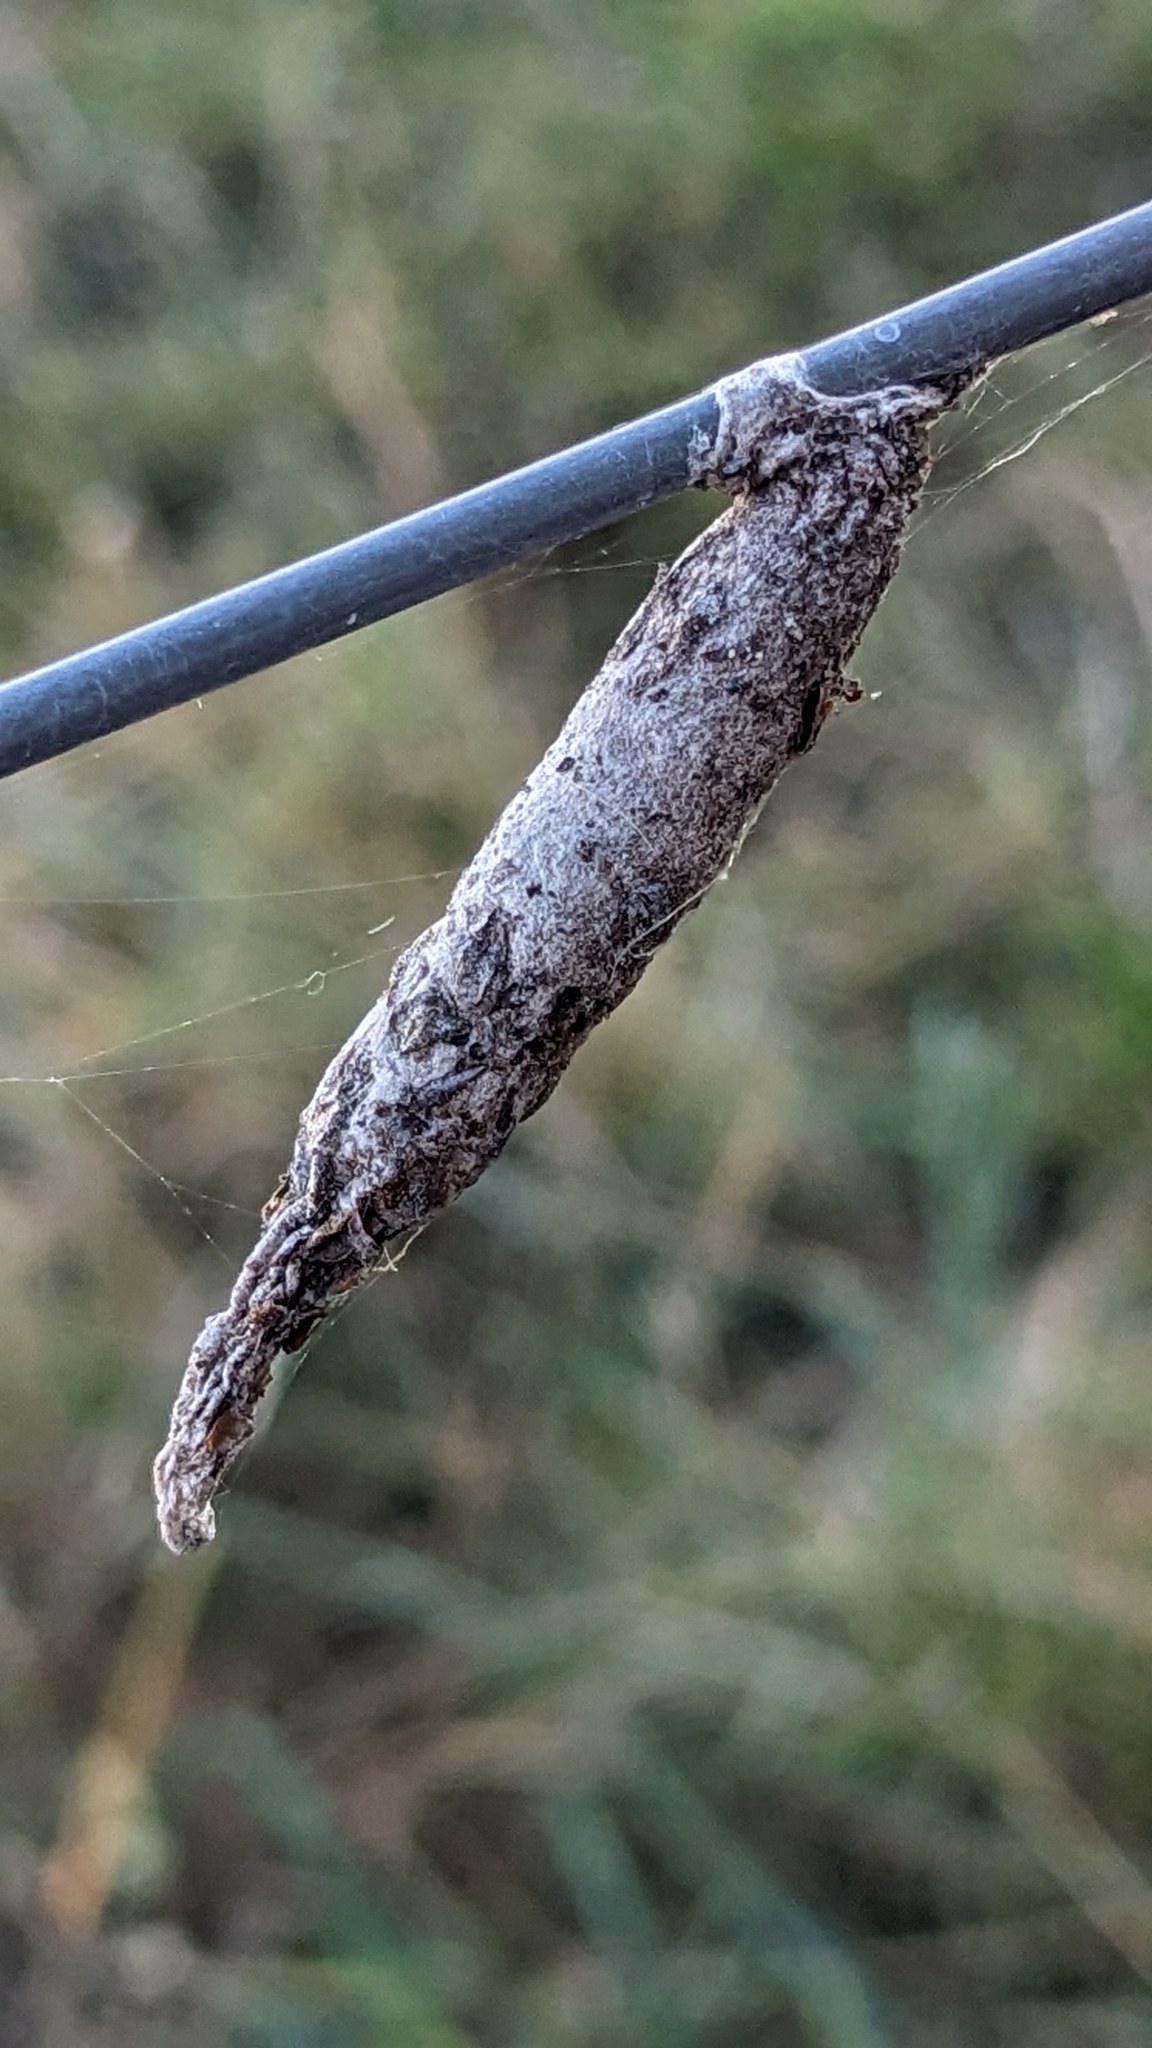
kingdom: Animalia
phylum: Arthropoda
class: Insecta
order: Lepidoptera
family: Psychidae
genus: Liothula
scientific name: Liothula omnivora
